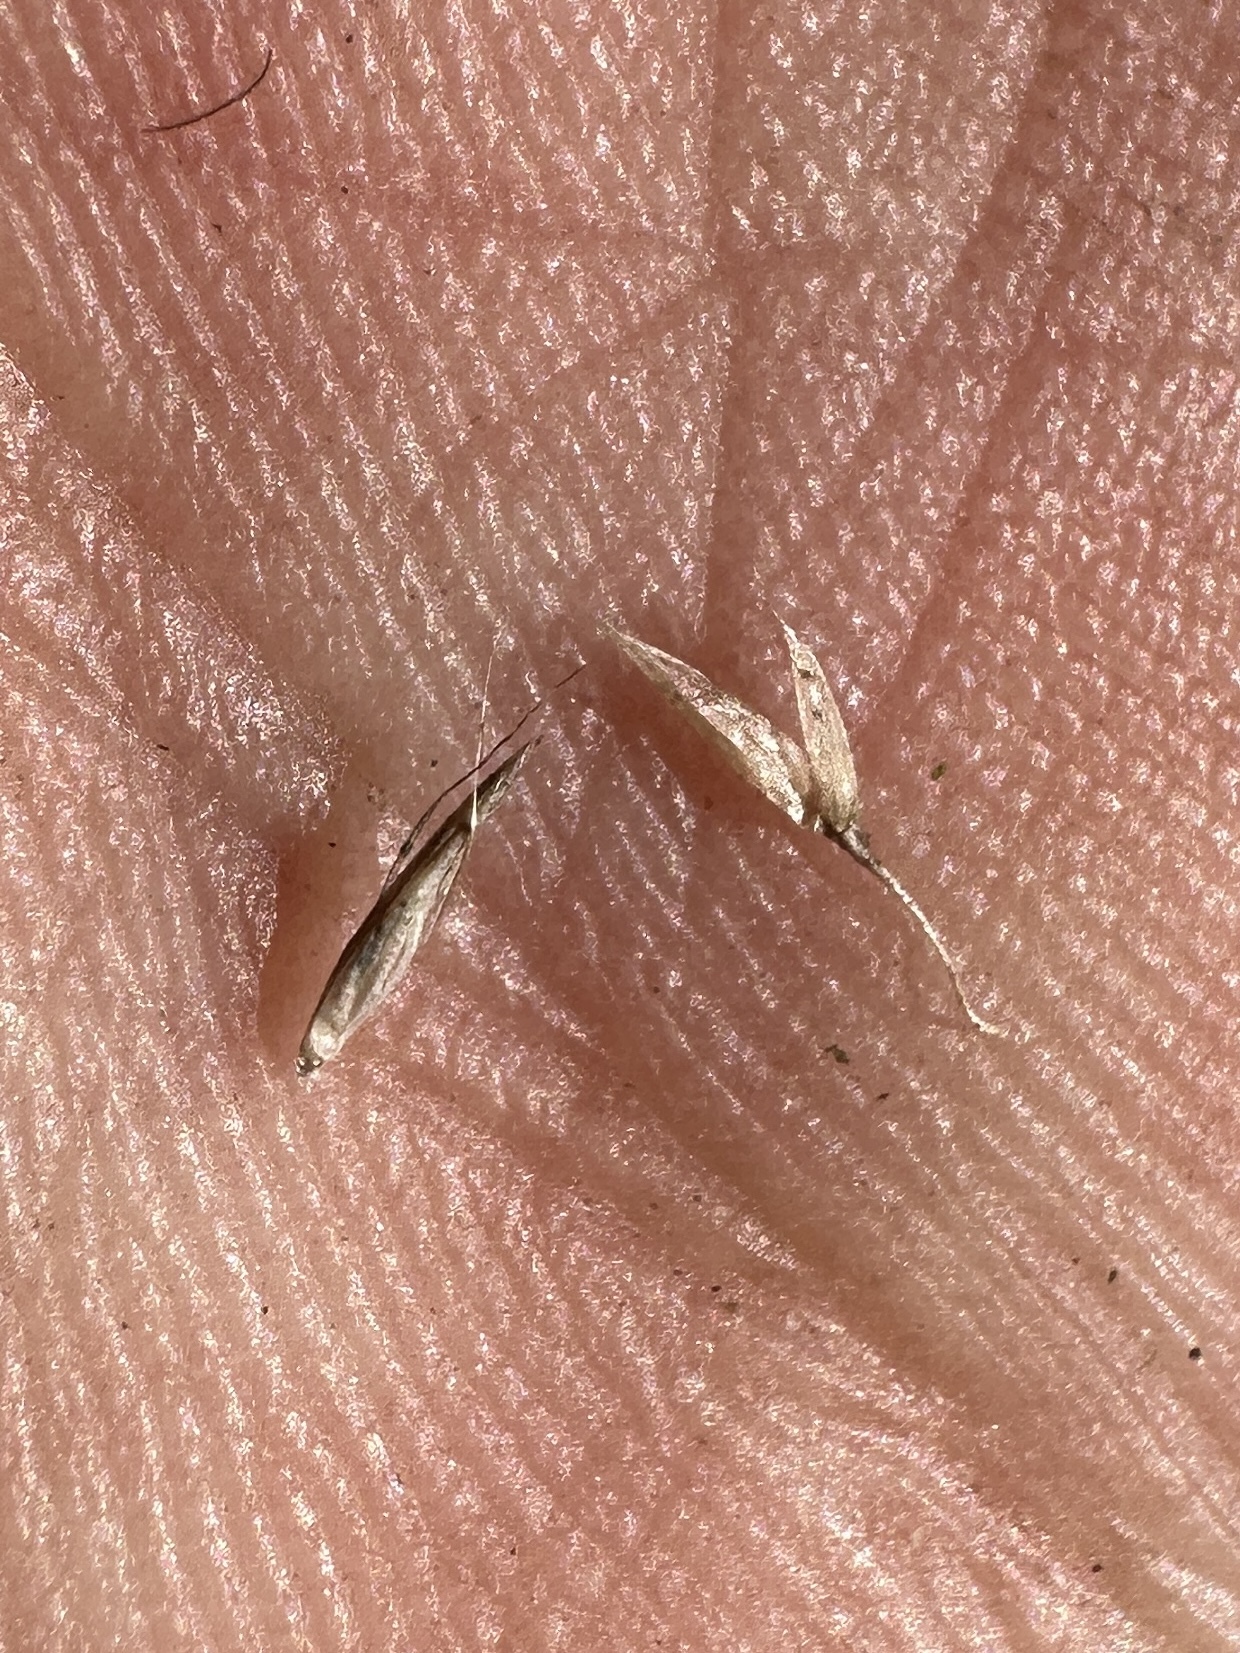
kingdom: Plantae
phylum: Tracheophyta
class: Liliopsida
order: Poales
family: Poaceae
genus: Avenella
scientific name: Avenella flexuosa
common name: Wavy hairgrass
